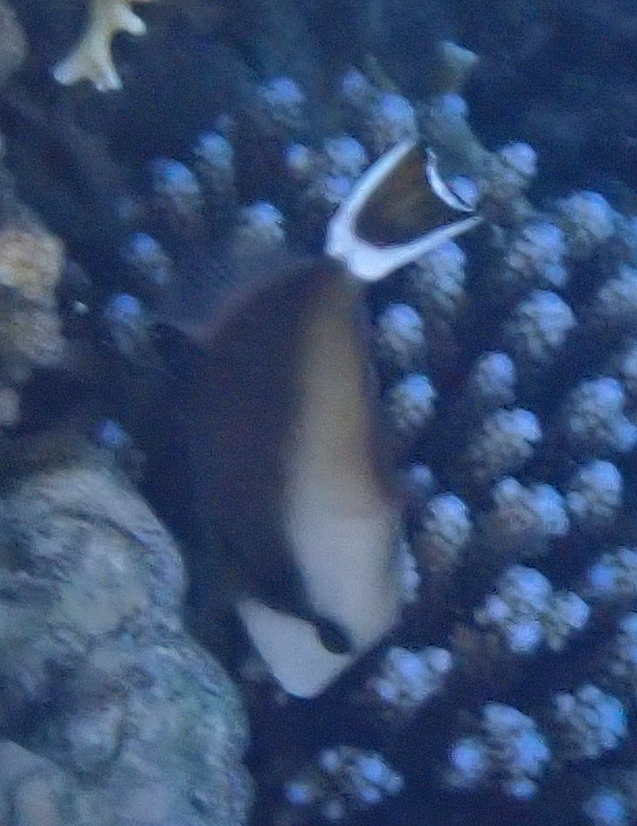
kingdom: Animalia
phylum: Chordata
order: Tetraodontiformes
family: Balistidae
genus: Sufflamen
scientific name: Sufflamen albicaudatum
